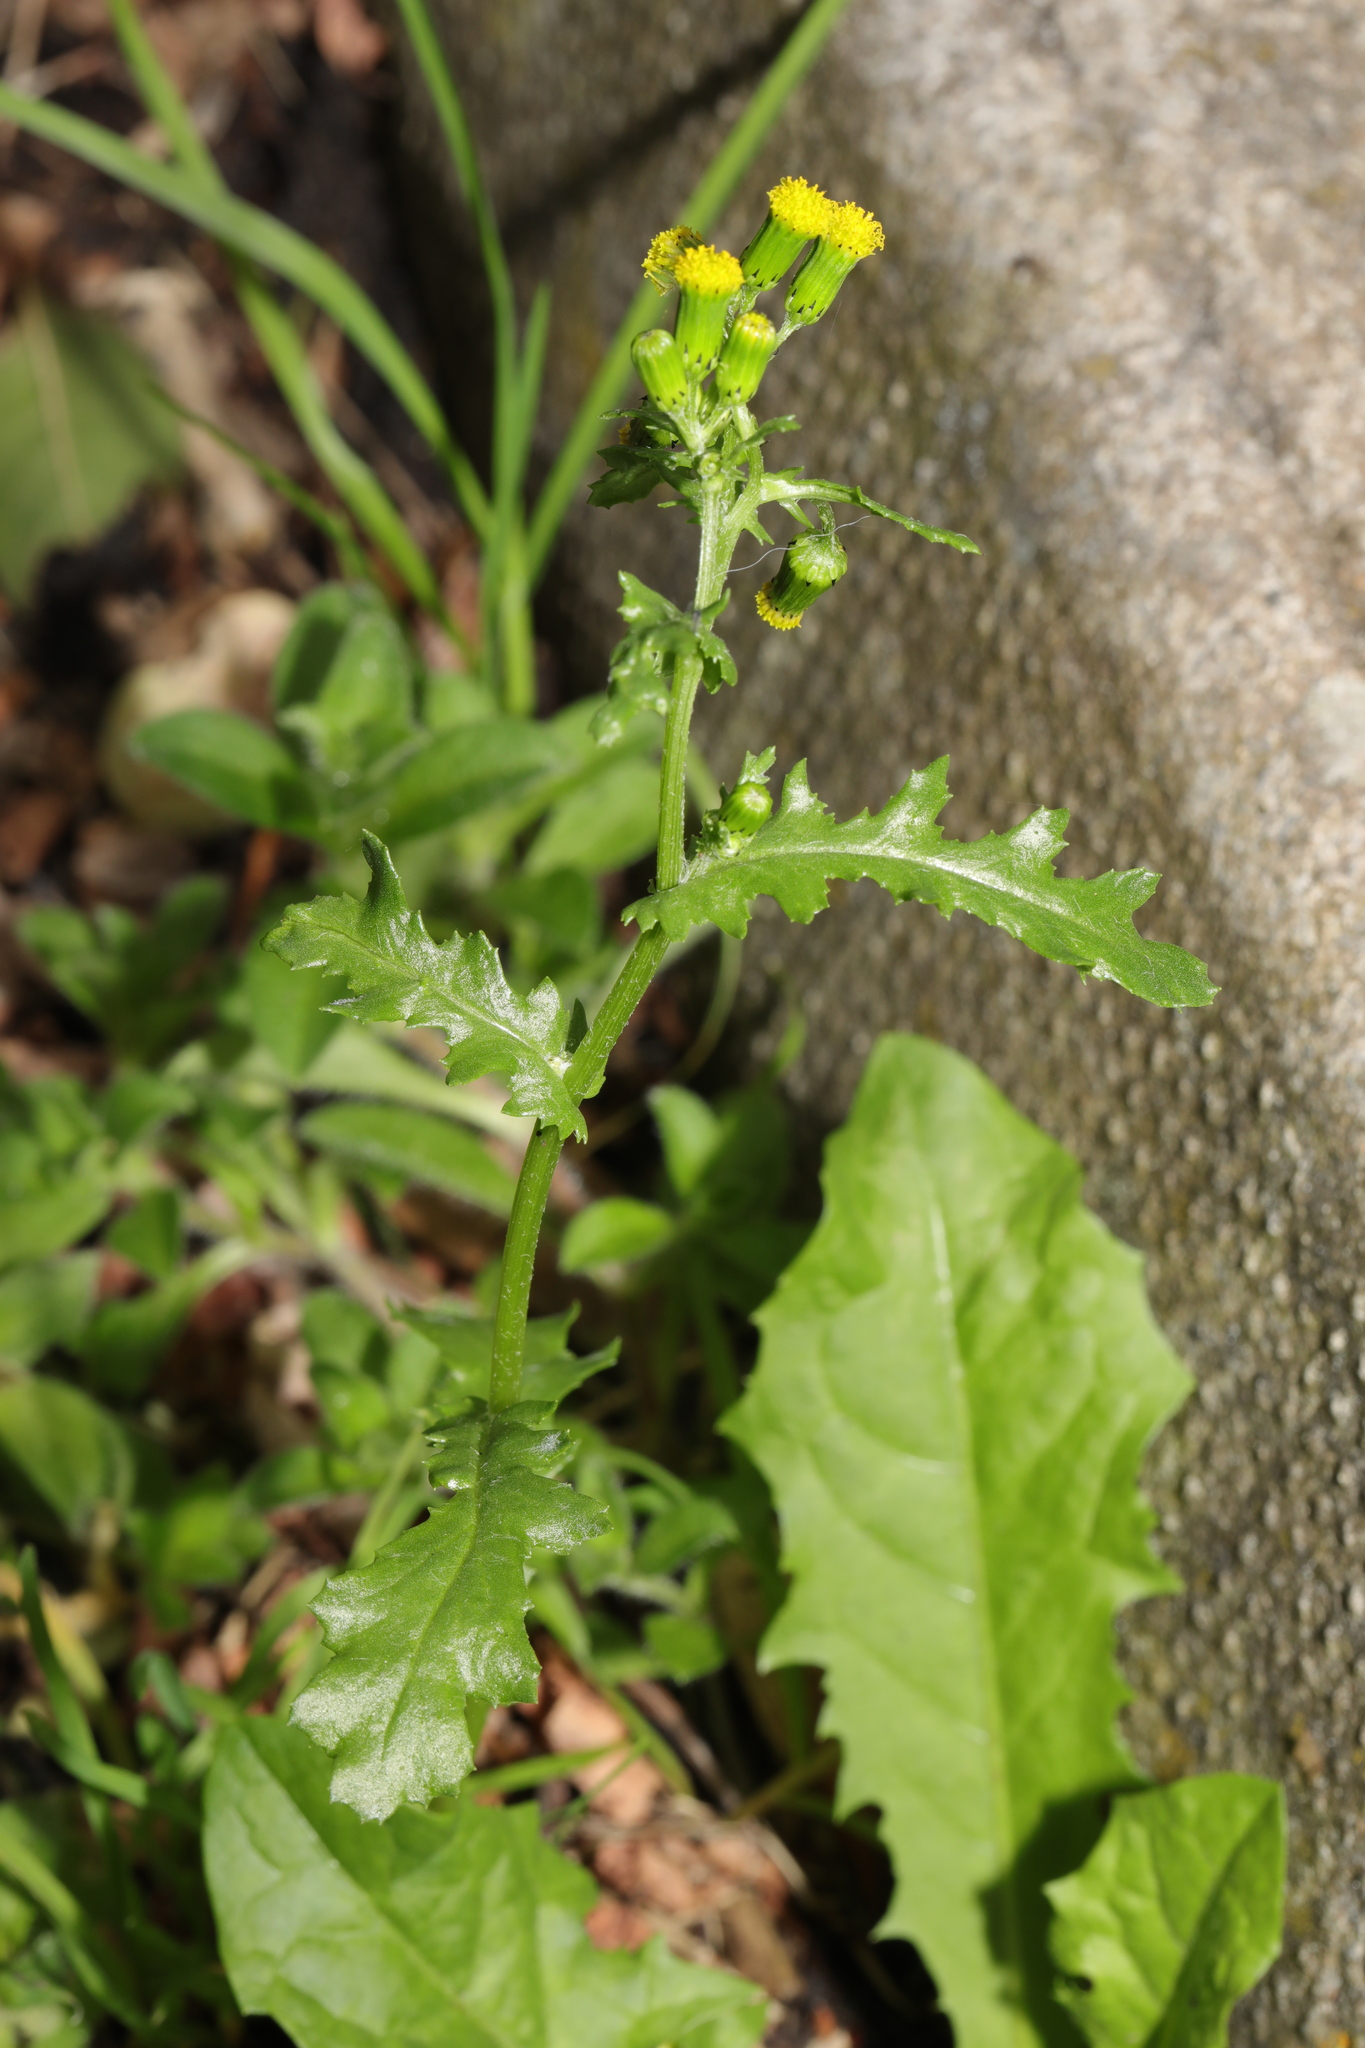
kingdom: Plantae
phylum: Tracheophyta
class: Magnoliopsida
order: Asterales
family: Asteraceae
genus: Senecio
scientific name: Senecio vulgaris
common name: Old-man-in-the-spring
